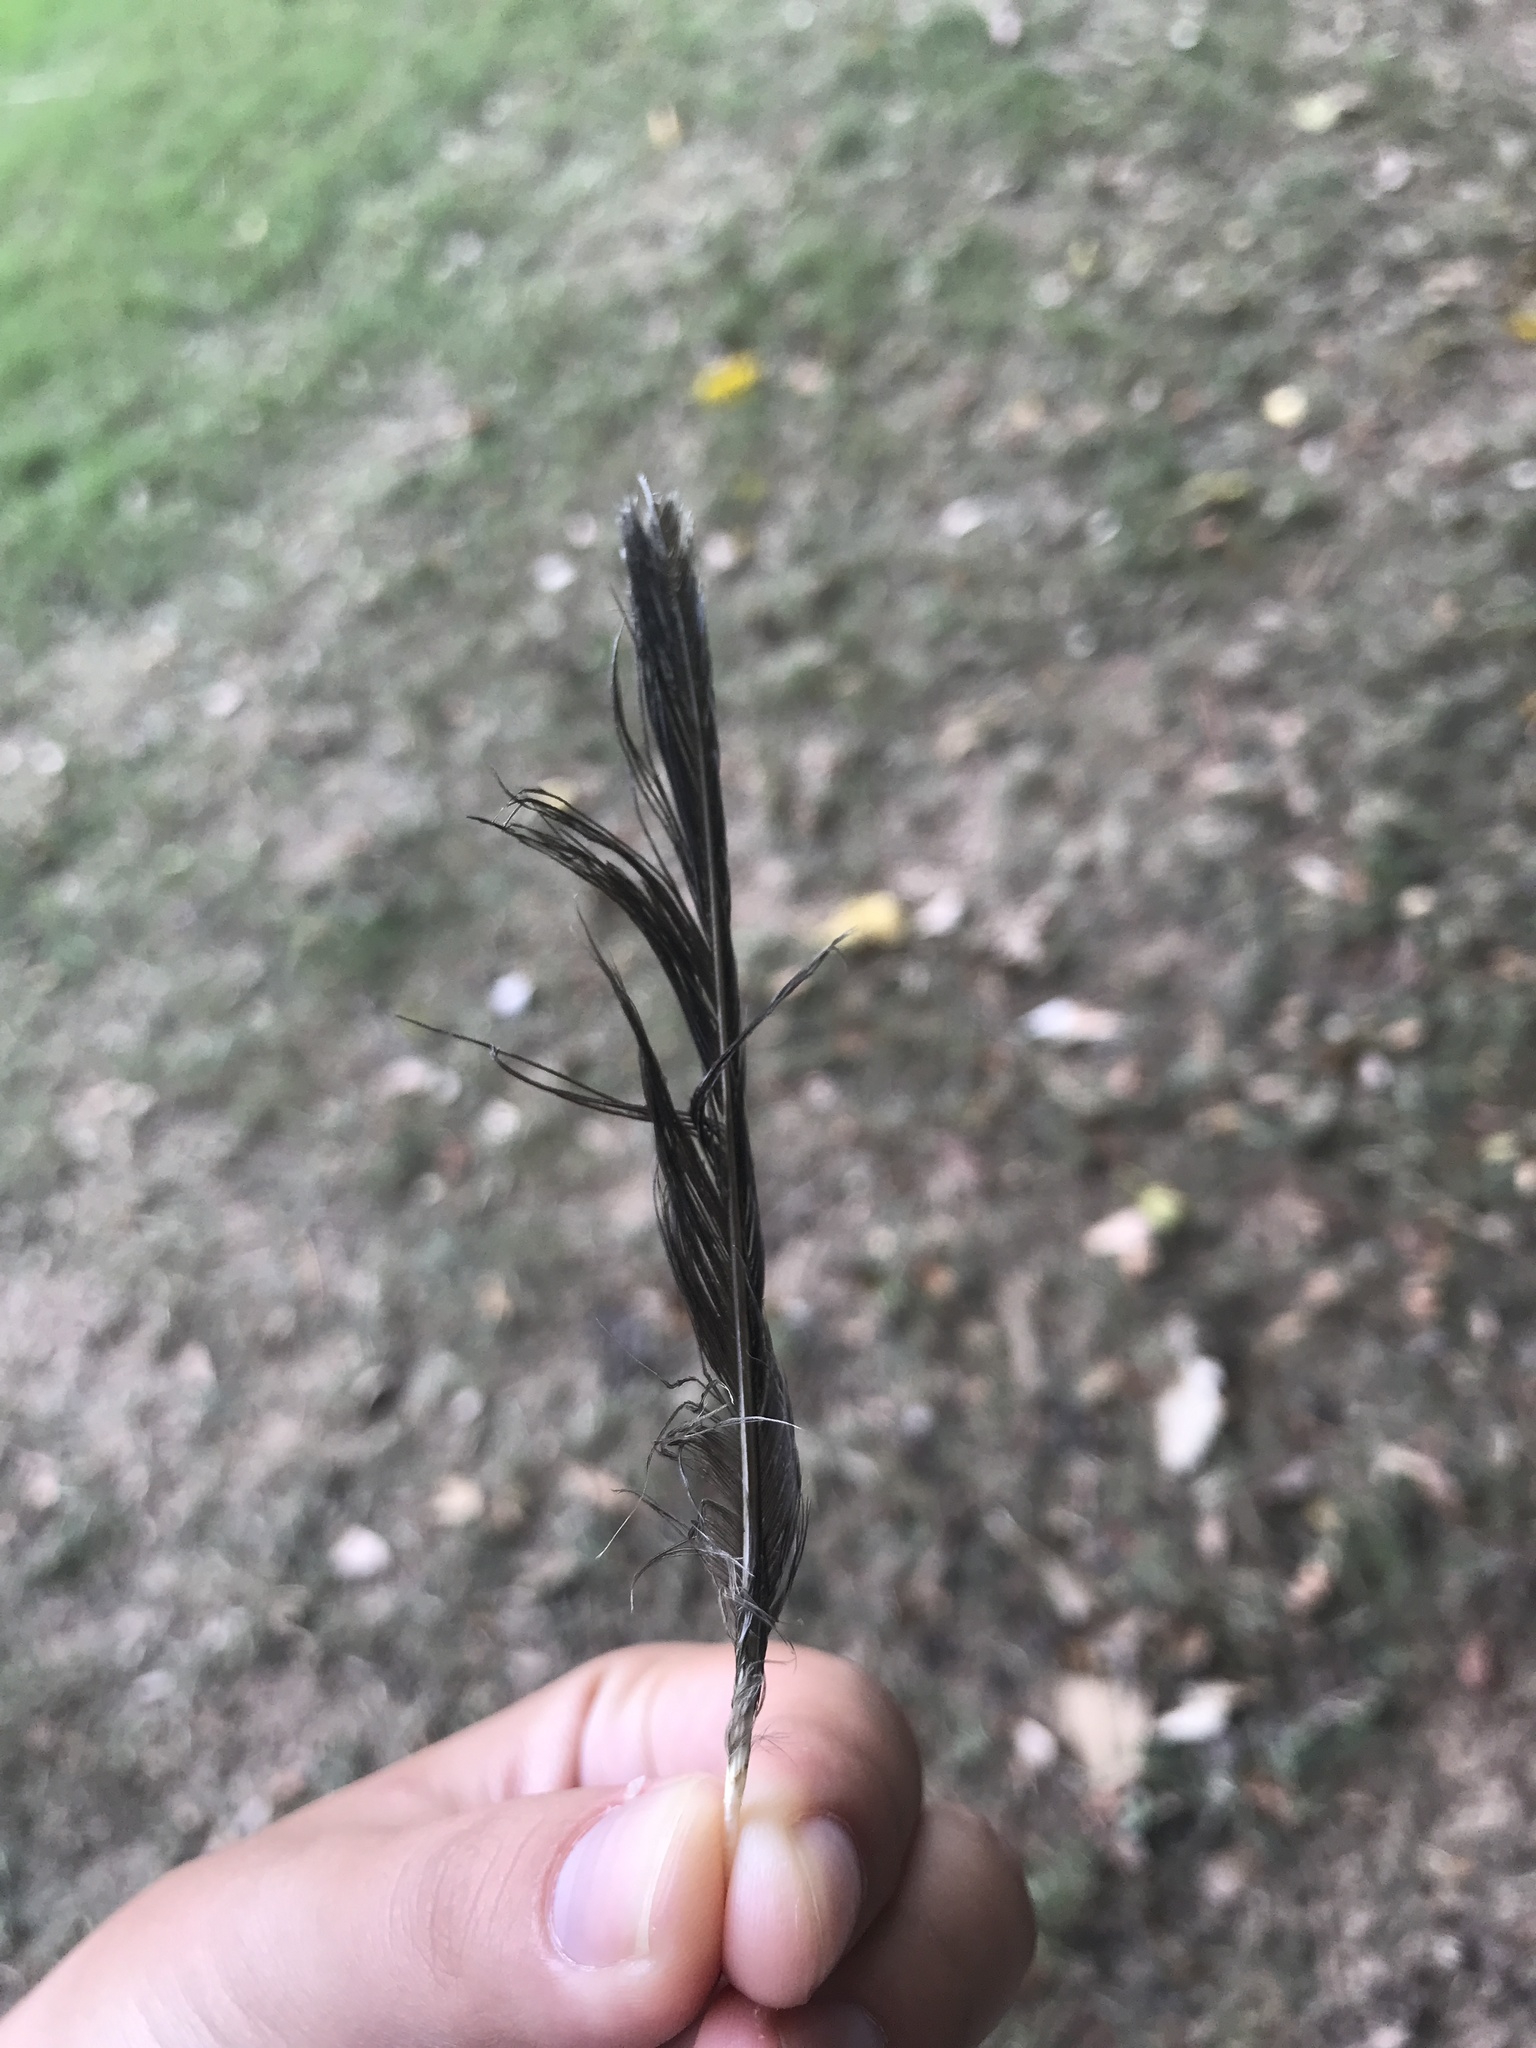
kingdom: Animalia
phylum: Chordata
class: Aves
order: Passeriformes
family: Passerellidae
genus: Pipilo
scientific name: Pipilo erythrophthalmus
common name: Eastern towhee
